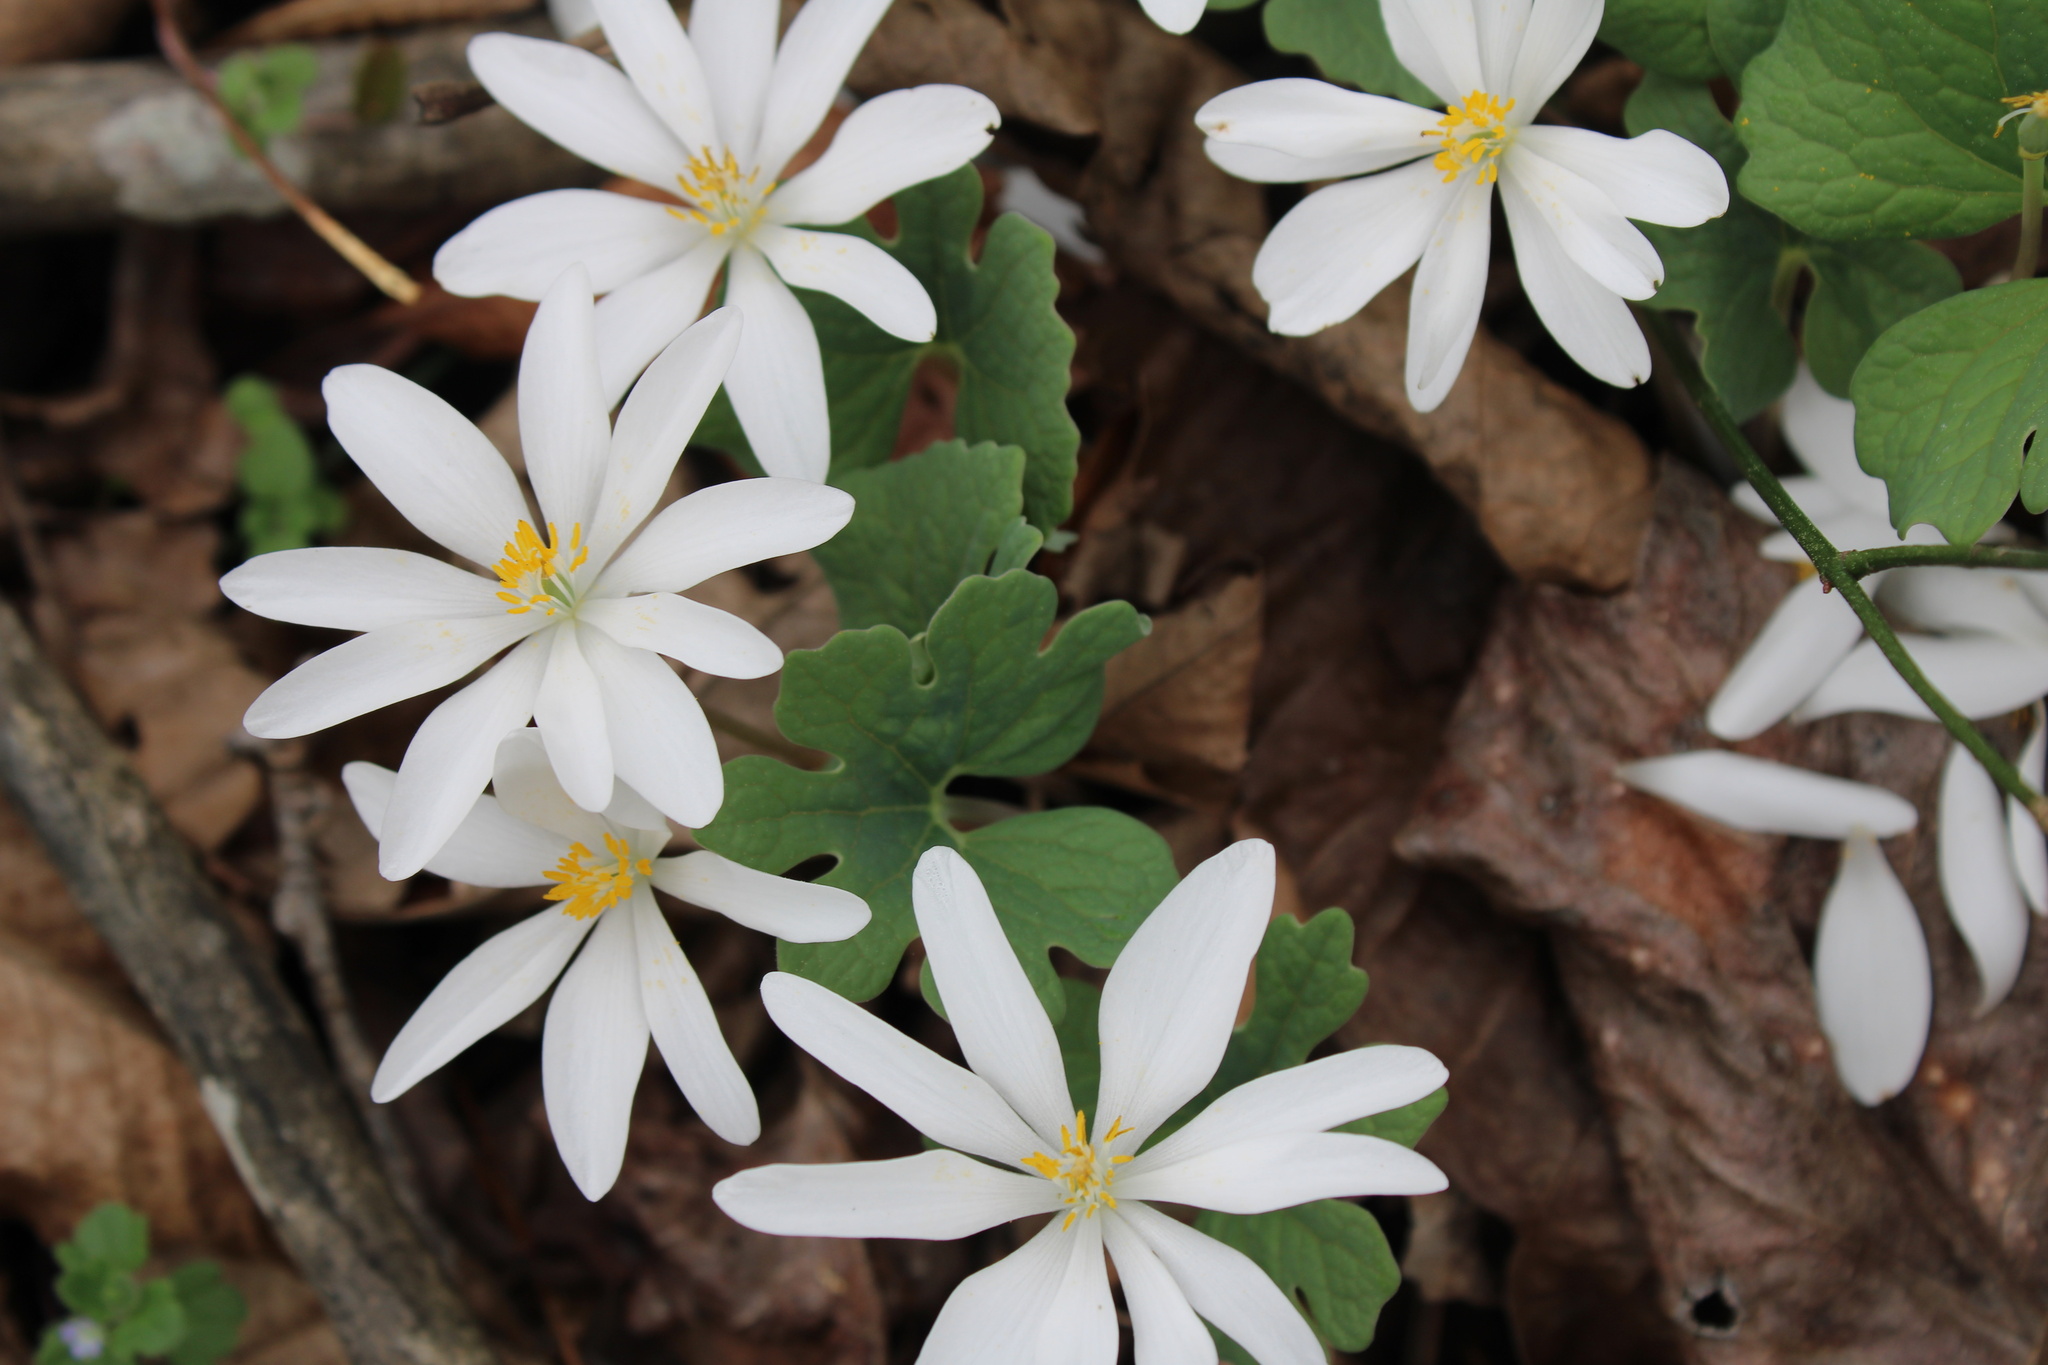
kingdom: Plantae
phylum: Tracheophyta
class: Magnoliopsida
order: Ranunculales
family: Papaveraceae
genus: Sanguinaria
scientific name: Sanguinaria canadensis
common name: Bloodroot
